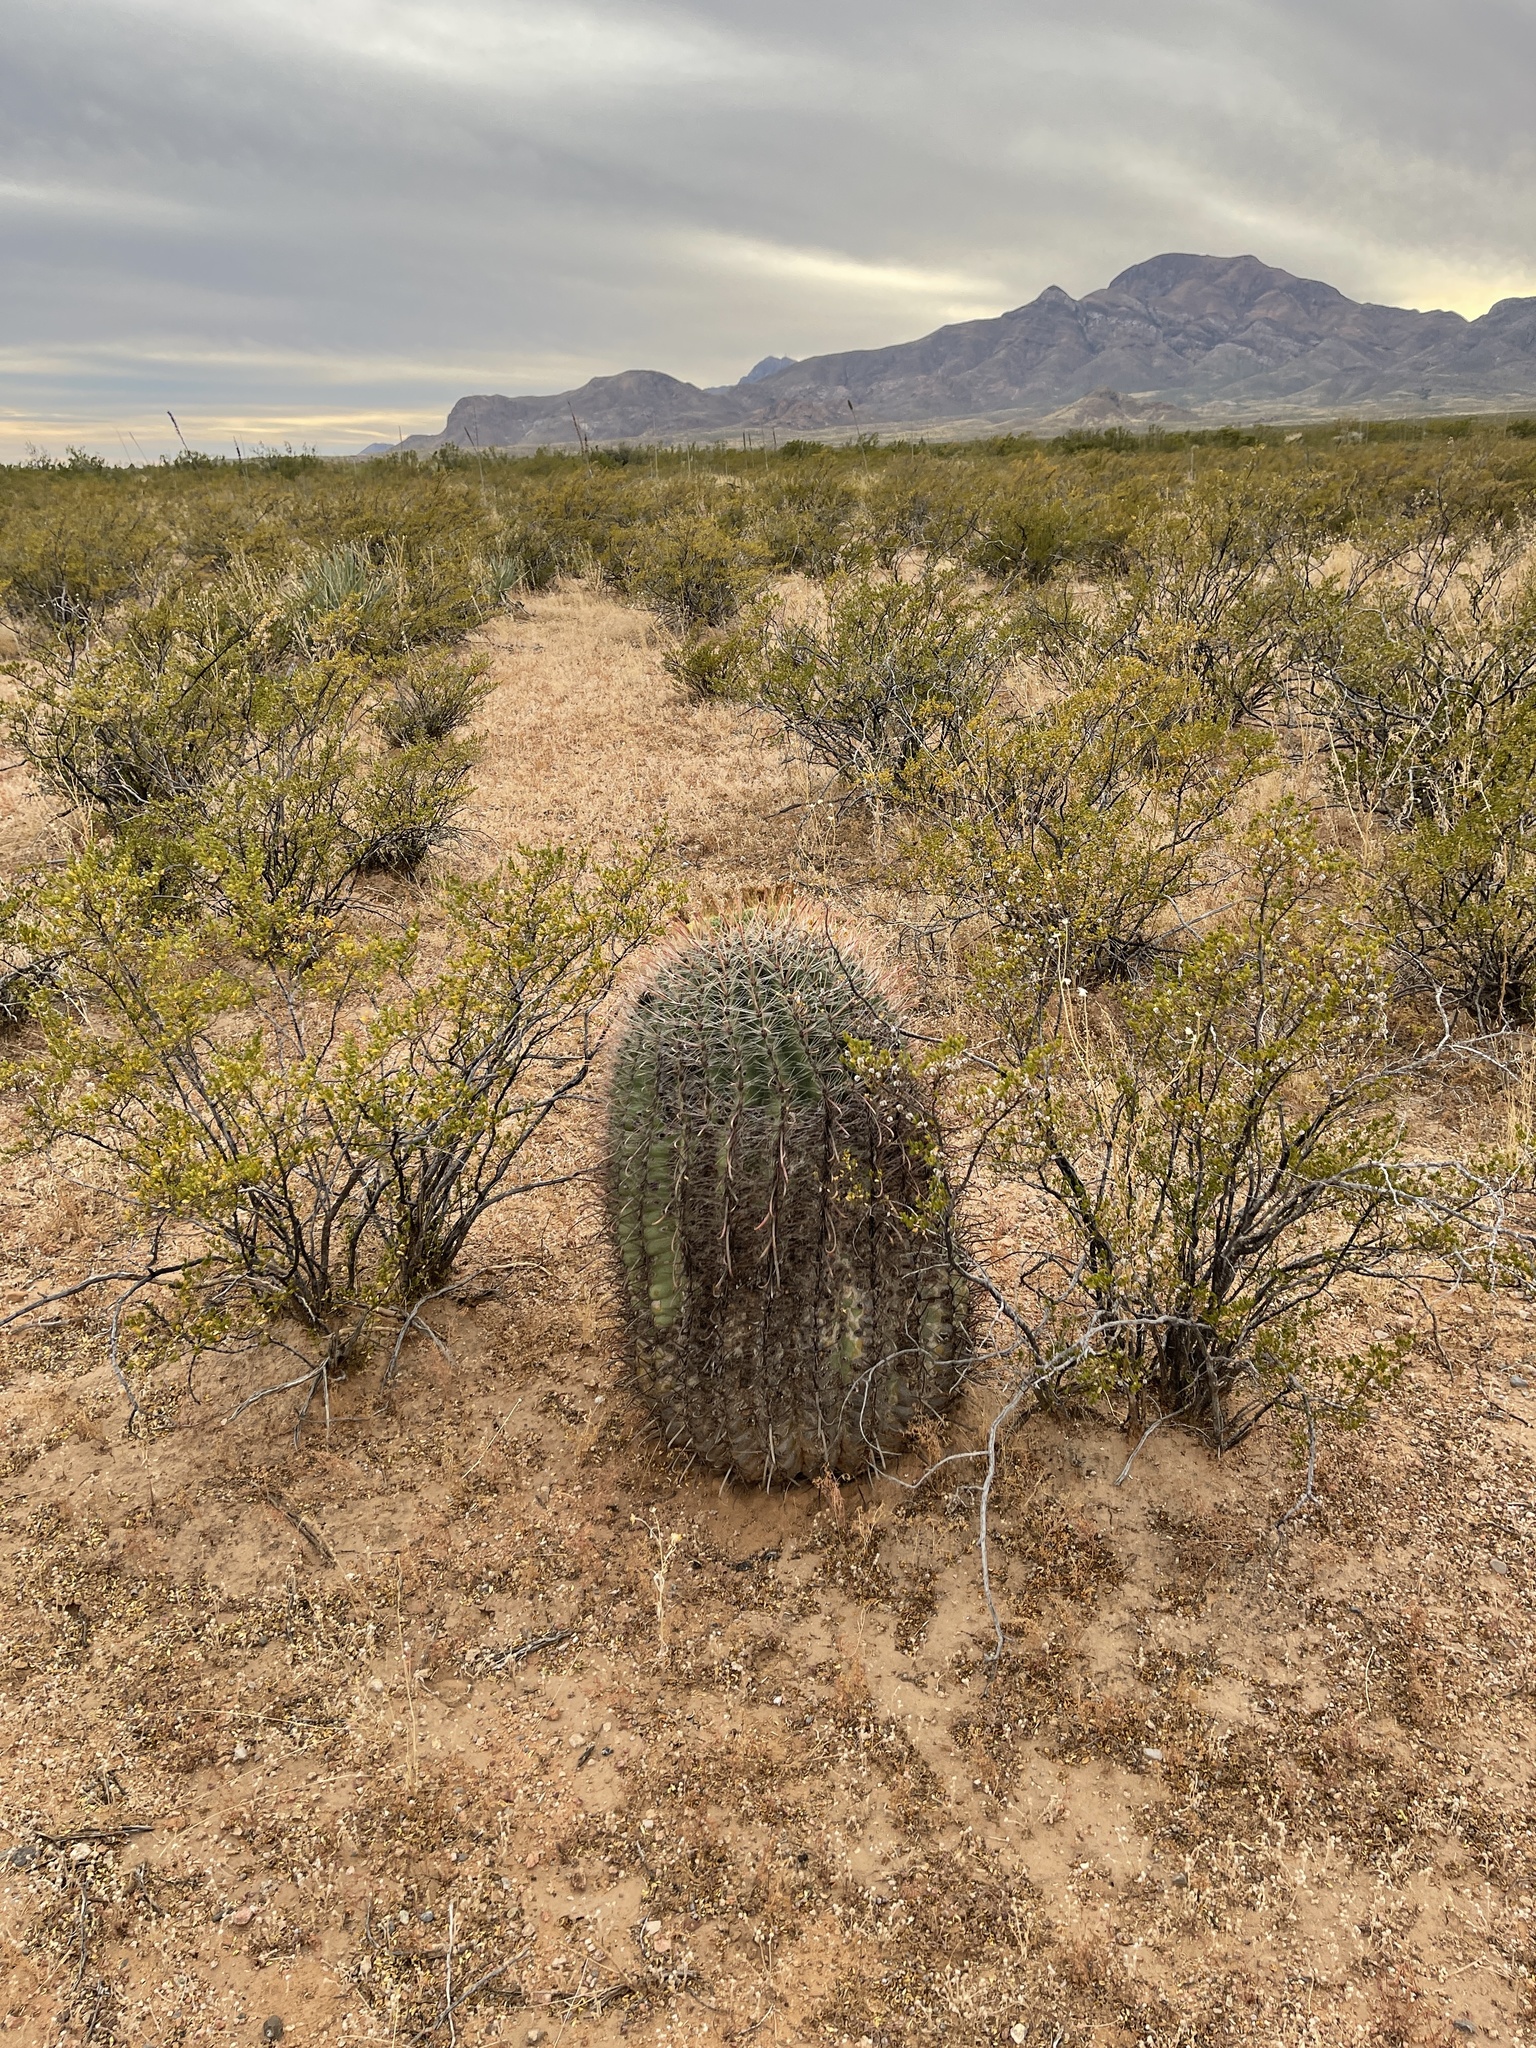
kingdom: Plantae
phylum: Tracheophyta
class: Magnoliopsida
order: Caryophyllales
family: Cactaceae
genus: Ferocactus
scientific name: Ferocactus wislizeni
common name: Candy barrel cactus
